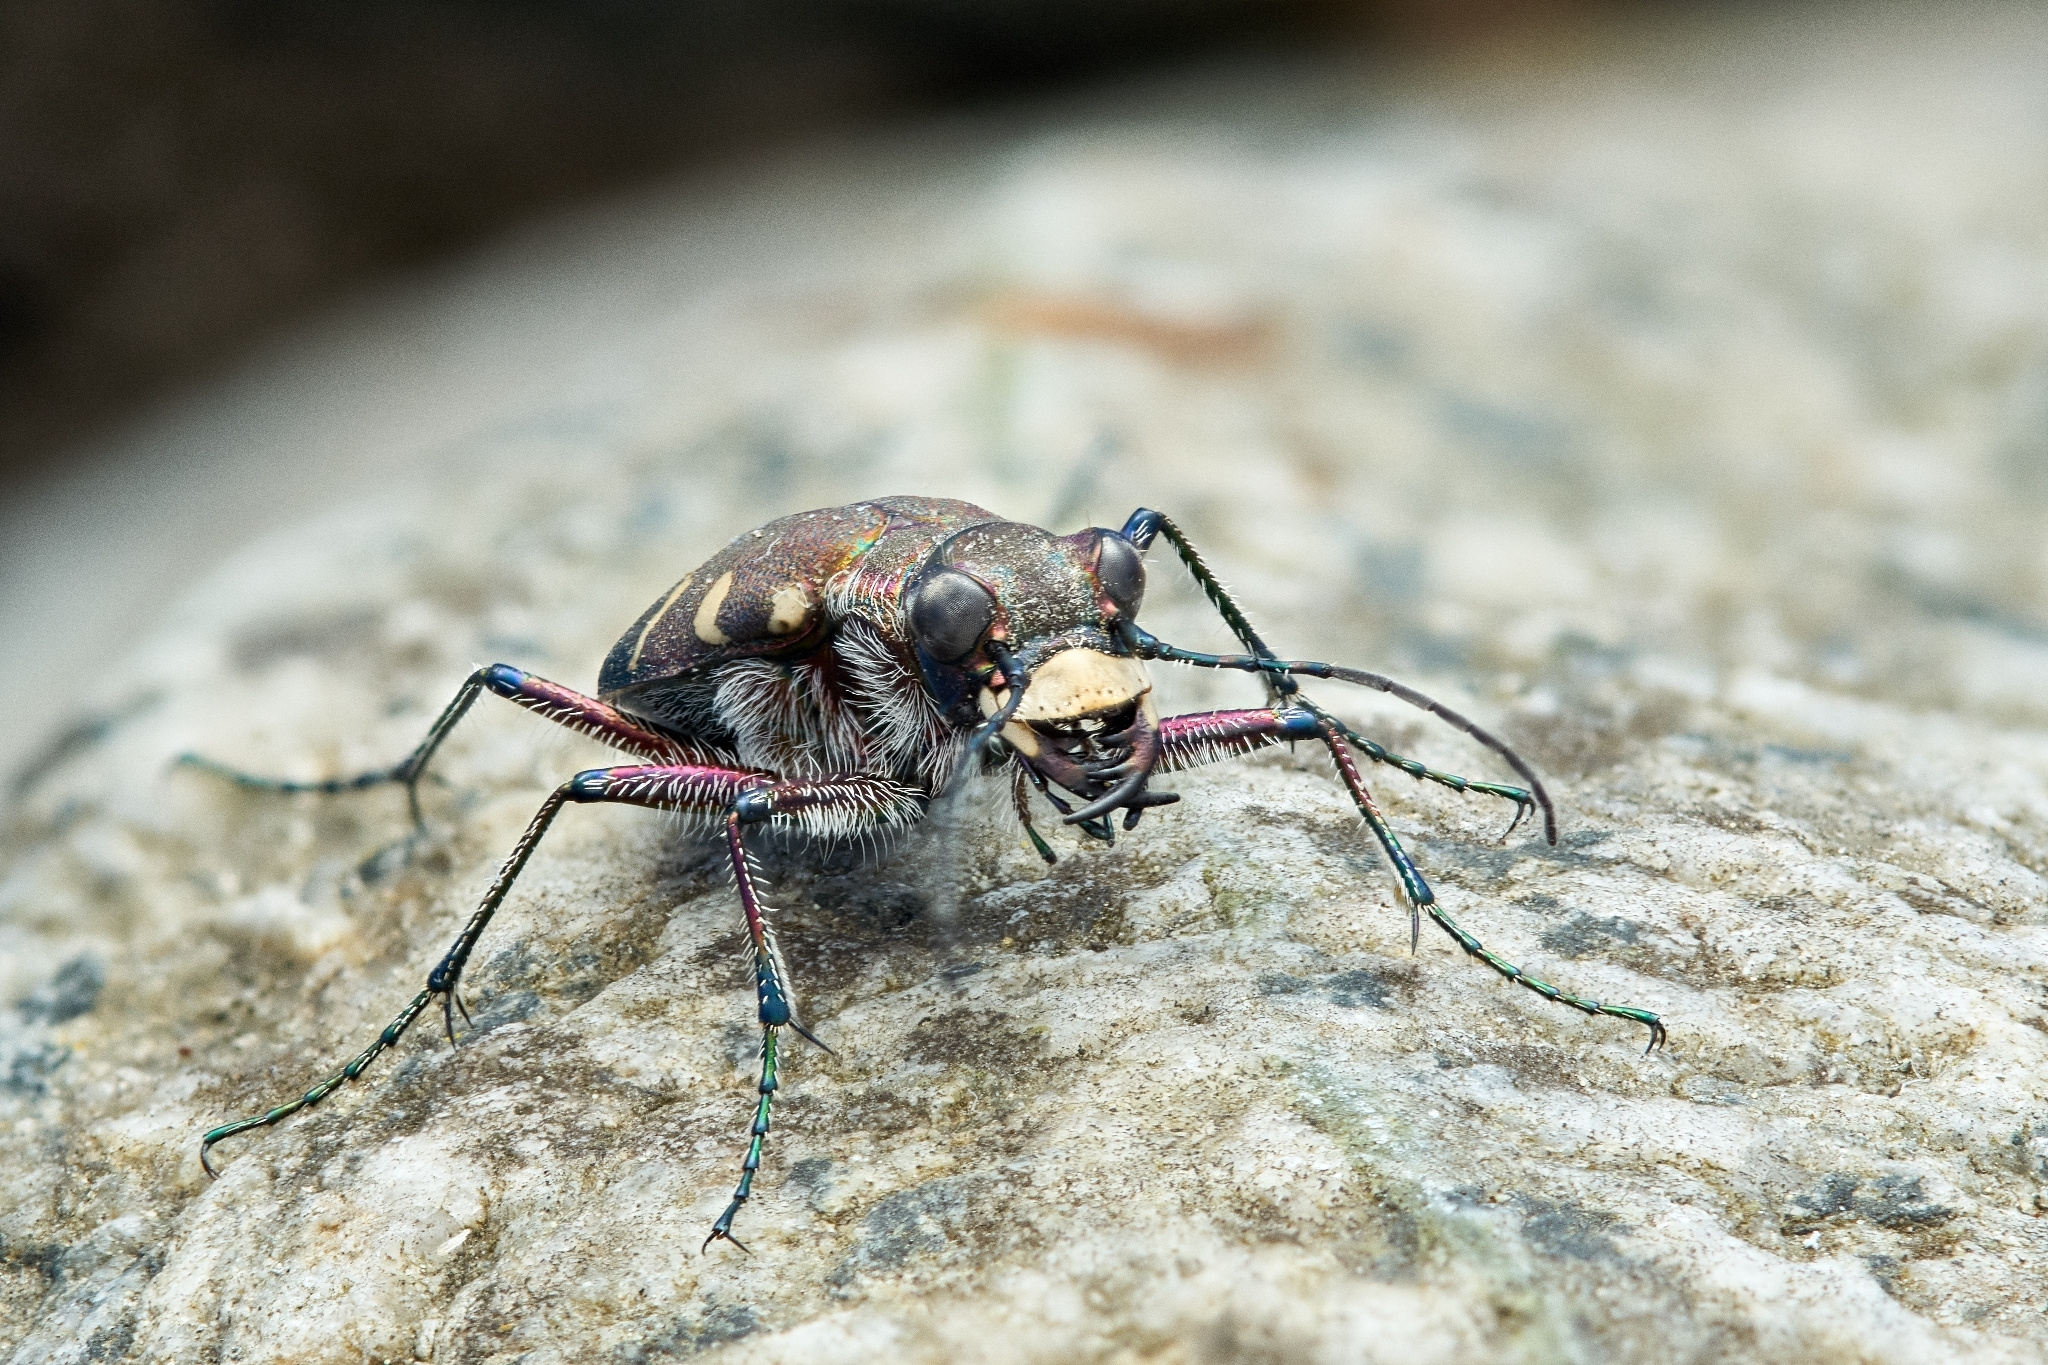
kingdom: Animalia
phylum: Arthropoda
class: Insecta
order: Coleoptera
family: Carabidae
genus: Cicindela
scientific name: Cicindela hybrida
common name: Northern dune tiger beetle
